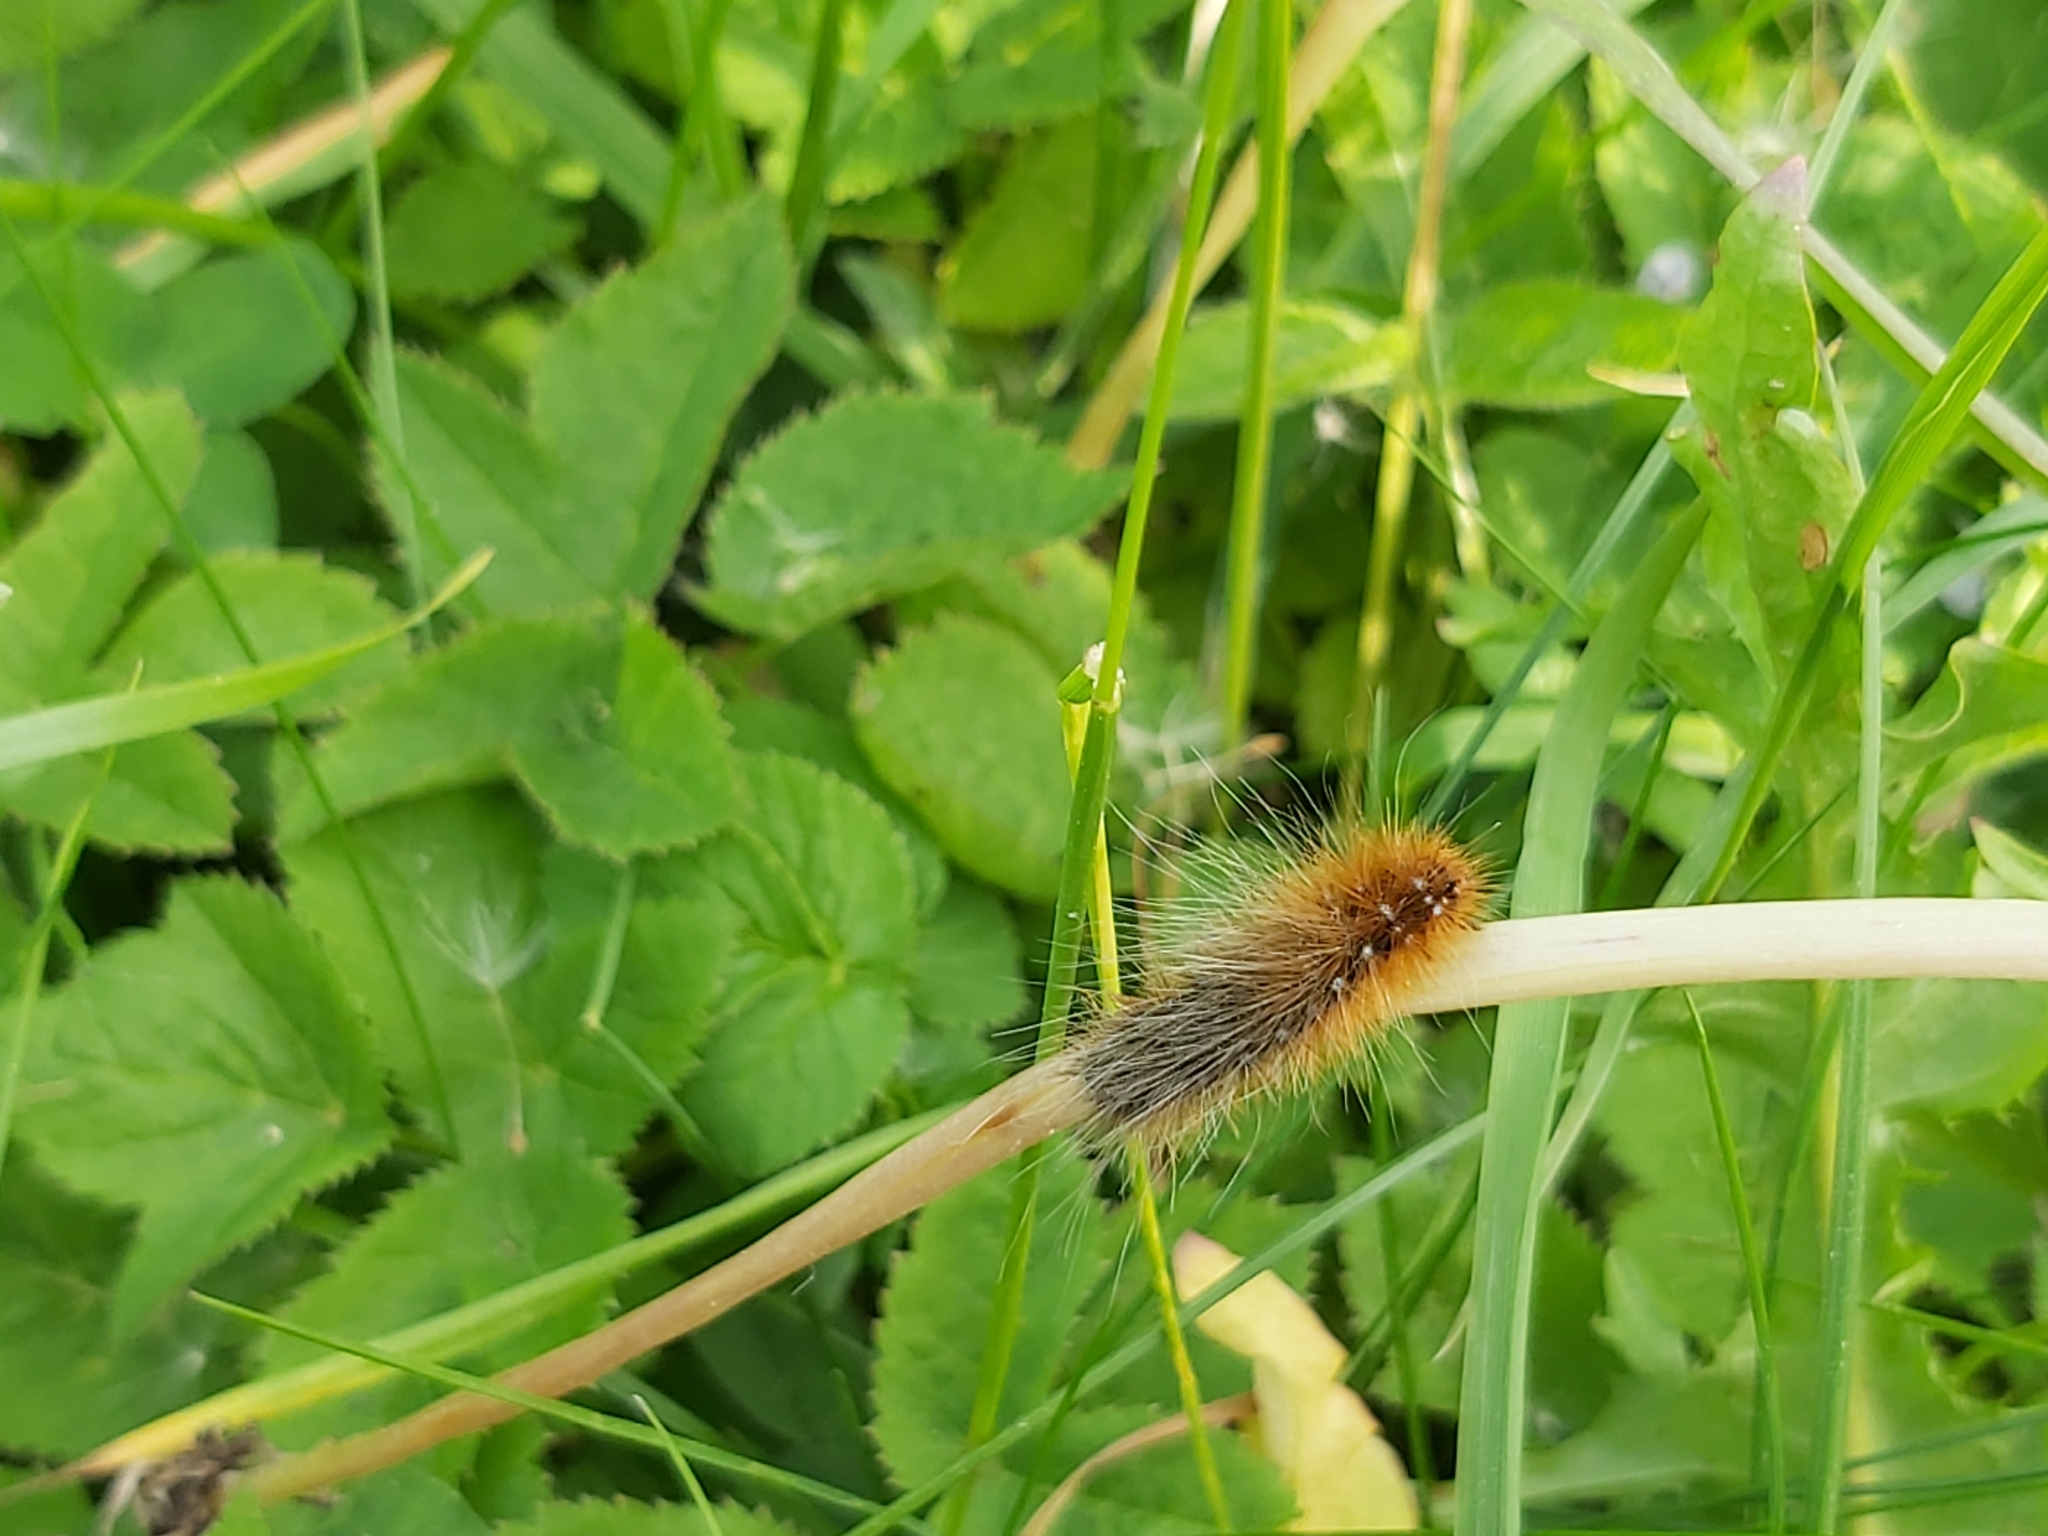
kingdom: Animalia
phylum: Arthropoda
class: Insecta
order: Lepidoptera
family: Erebidae
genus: Arctia
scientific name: Arctia caja
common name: Garden tiger
